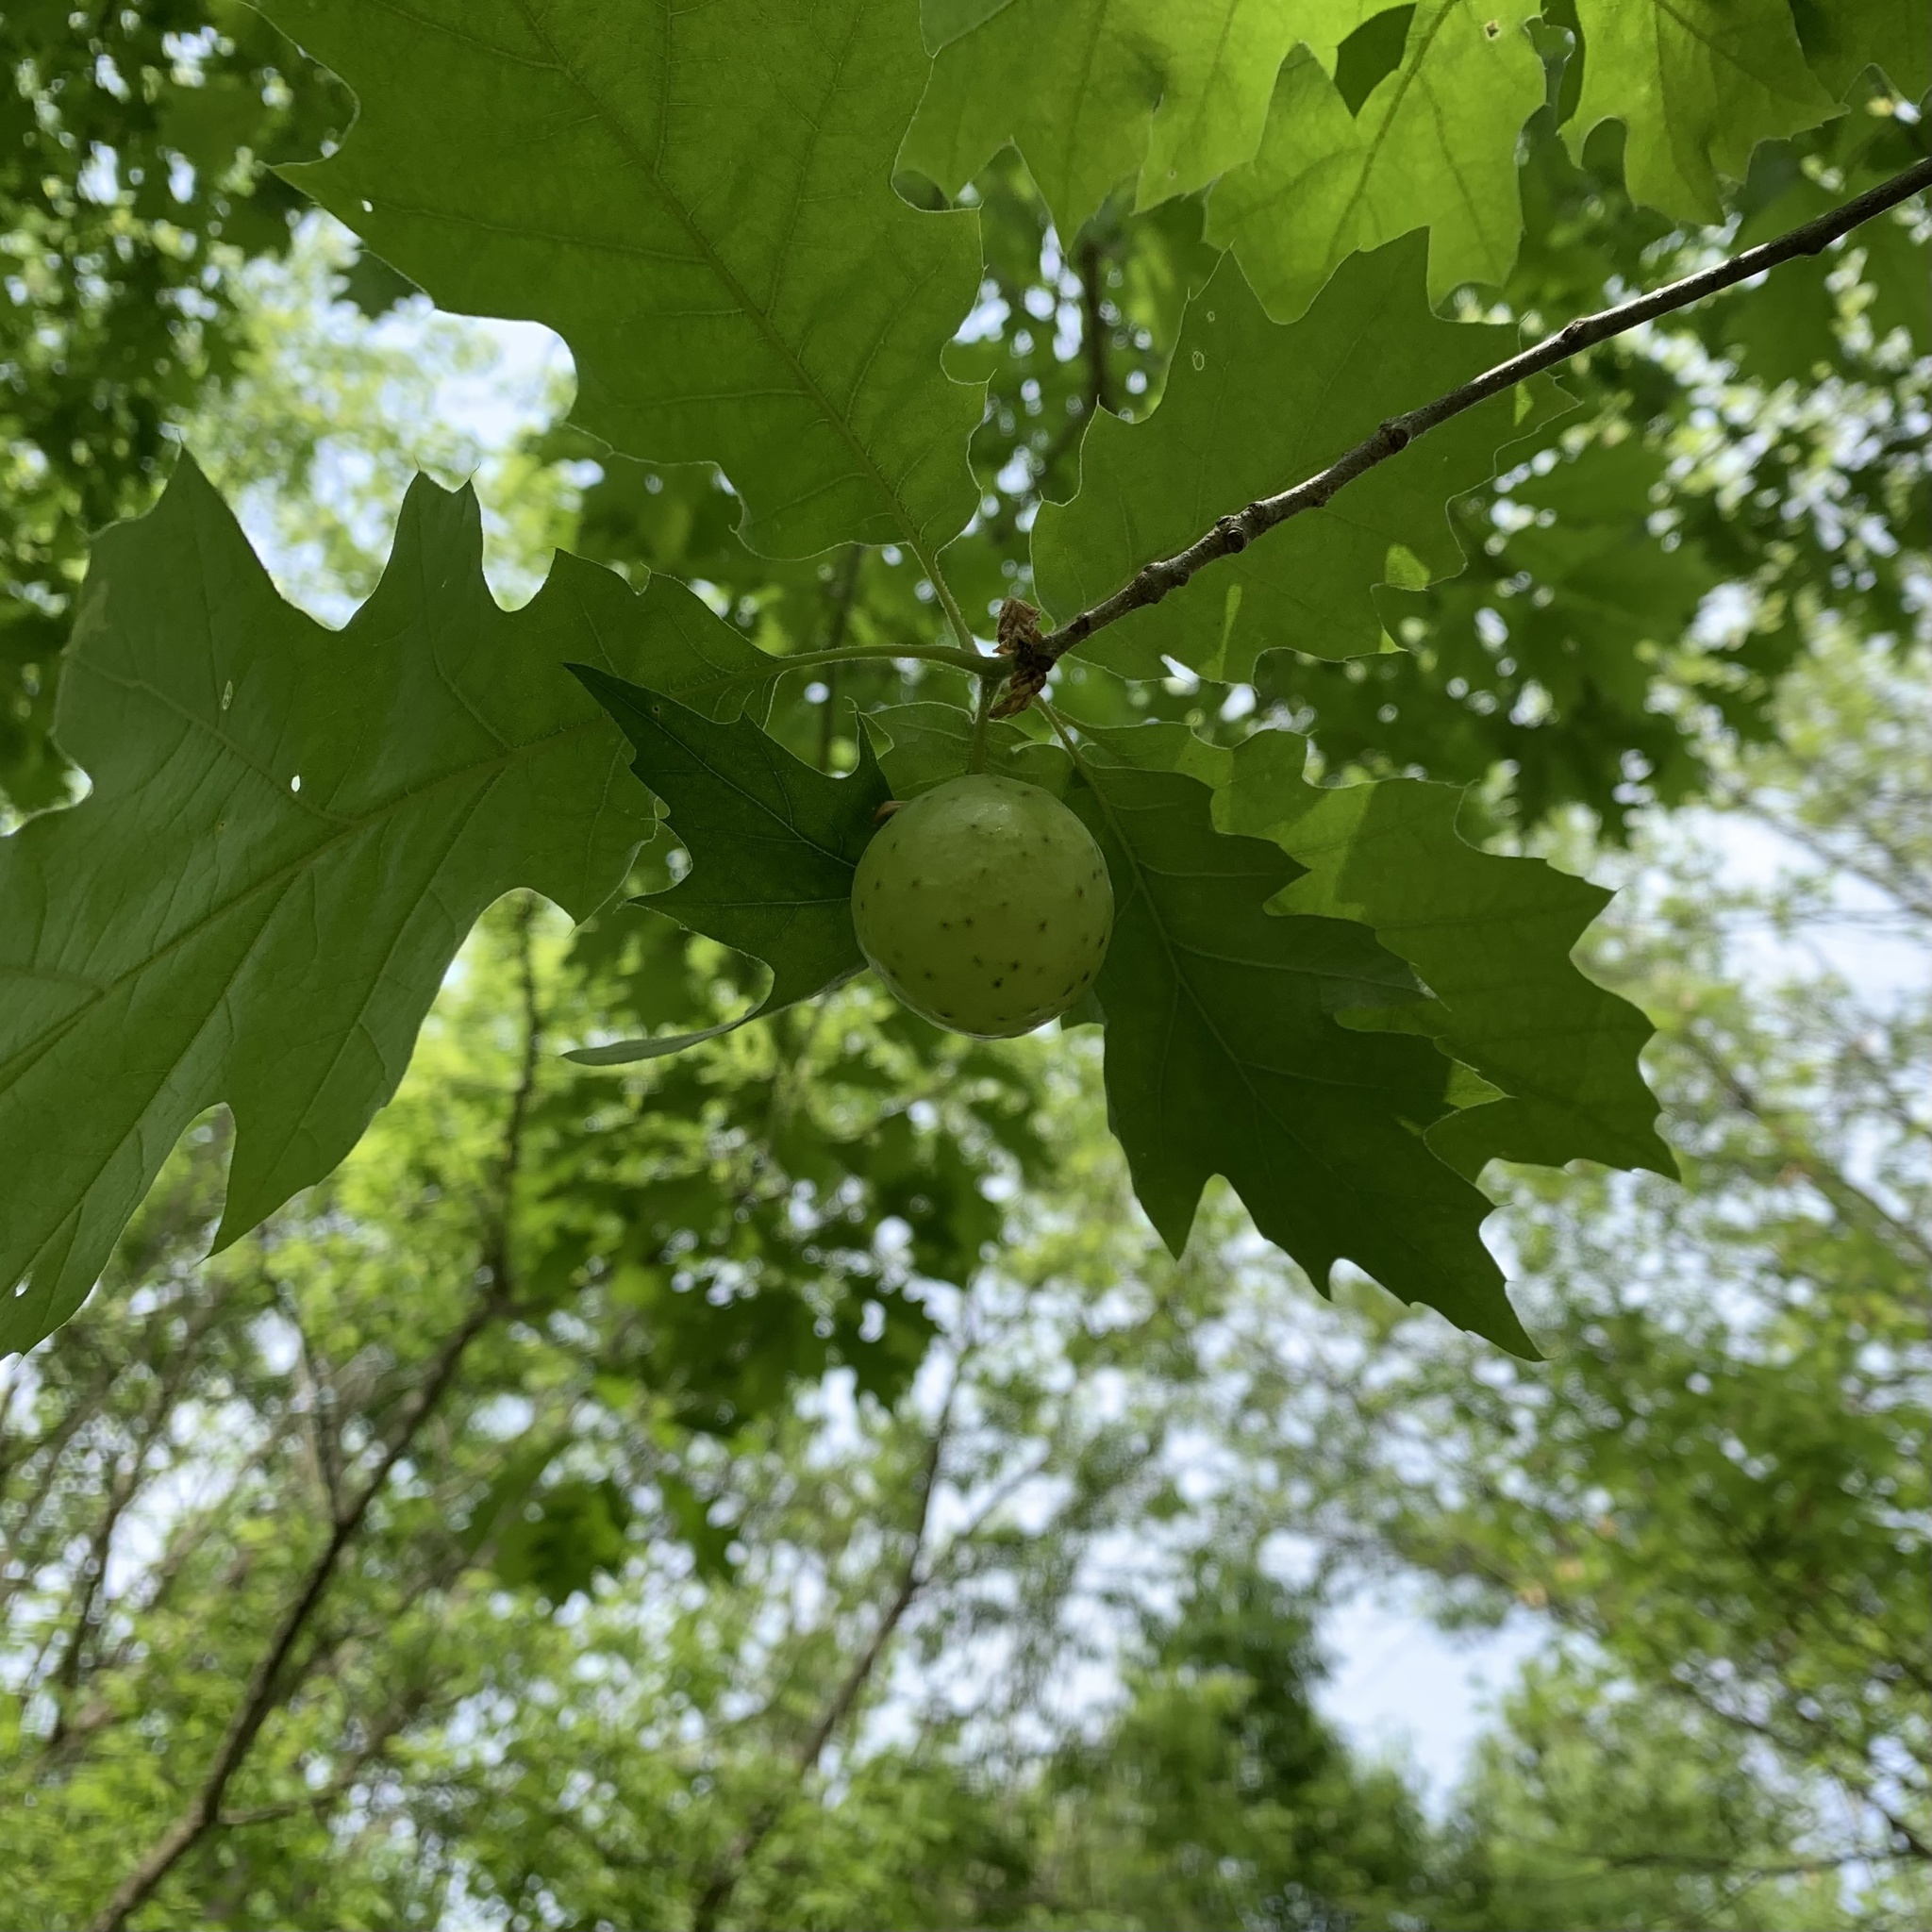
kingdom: Animalia
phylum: Arthropoda
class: Insecta
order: Hymenoptera
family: Cynipidae
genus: Amphibolips
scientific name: Amphibolips
